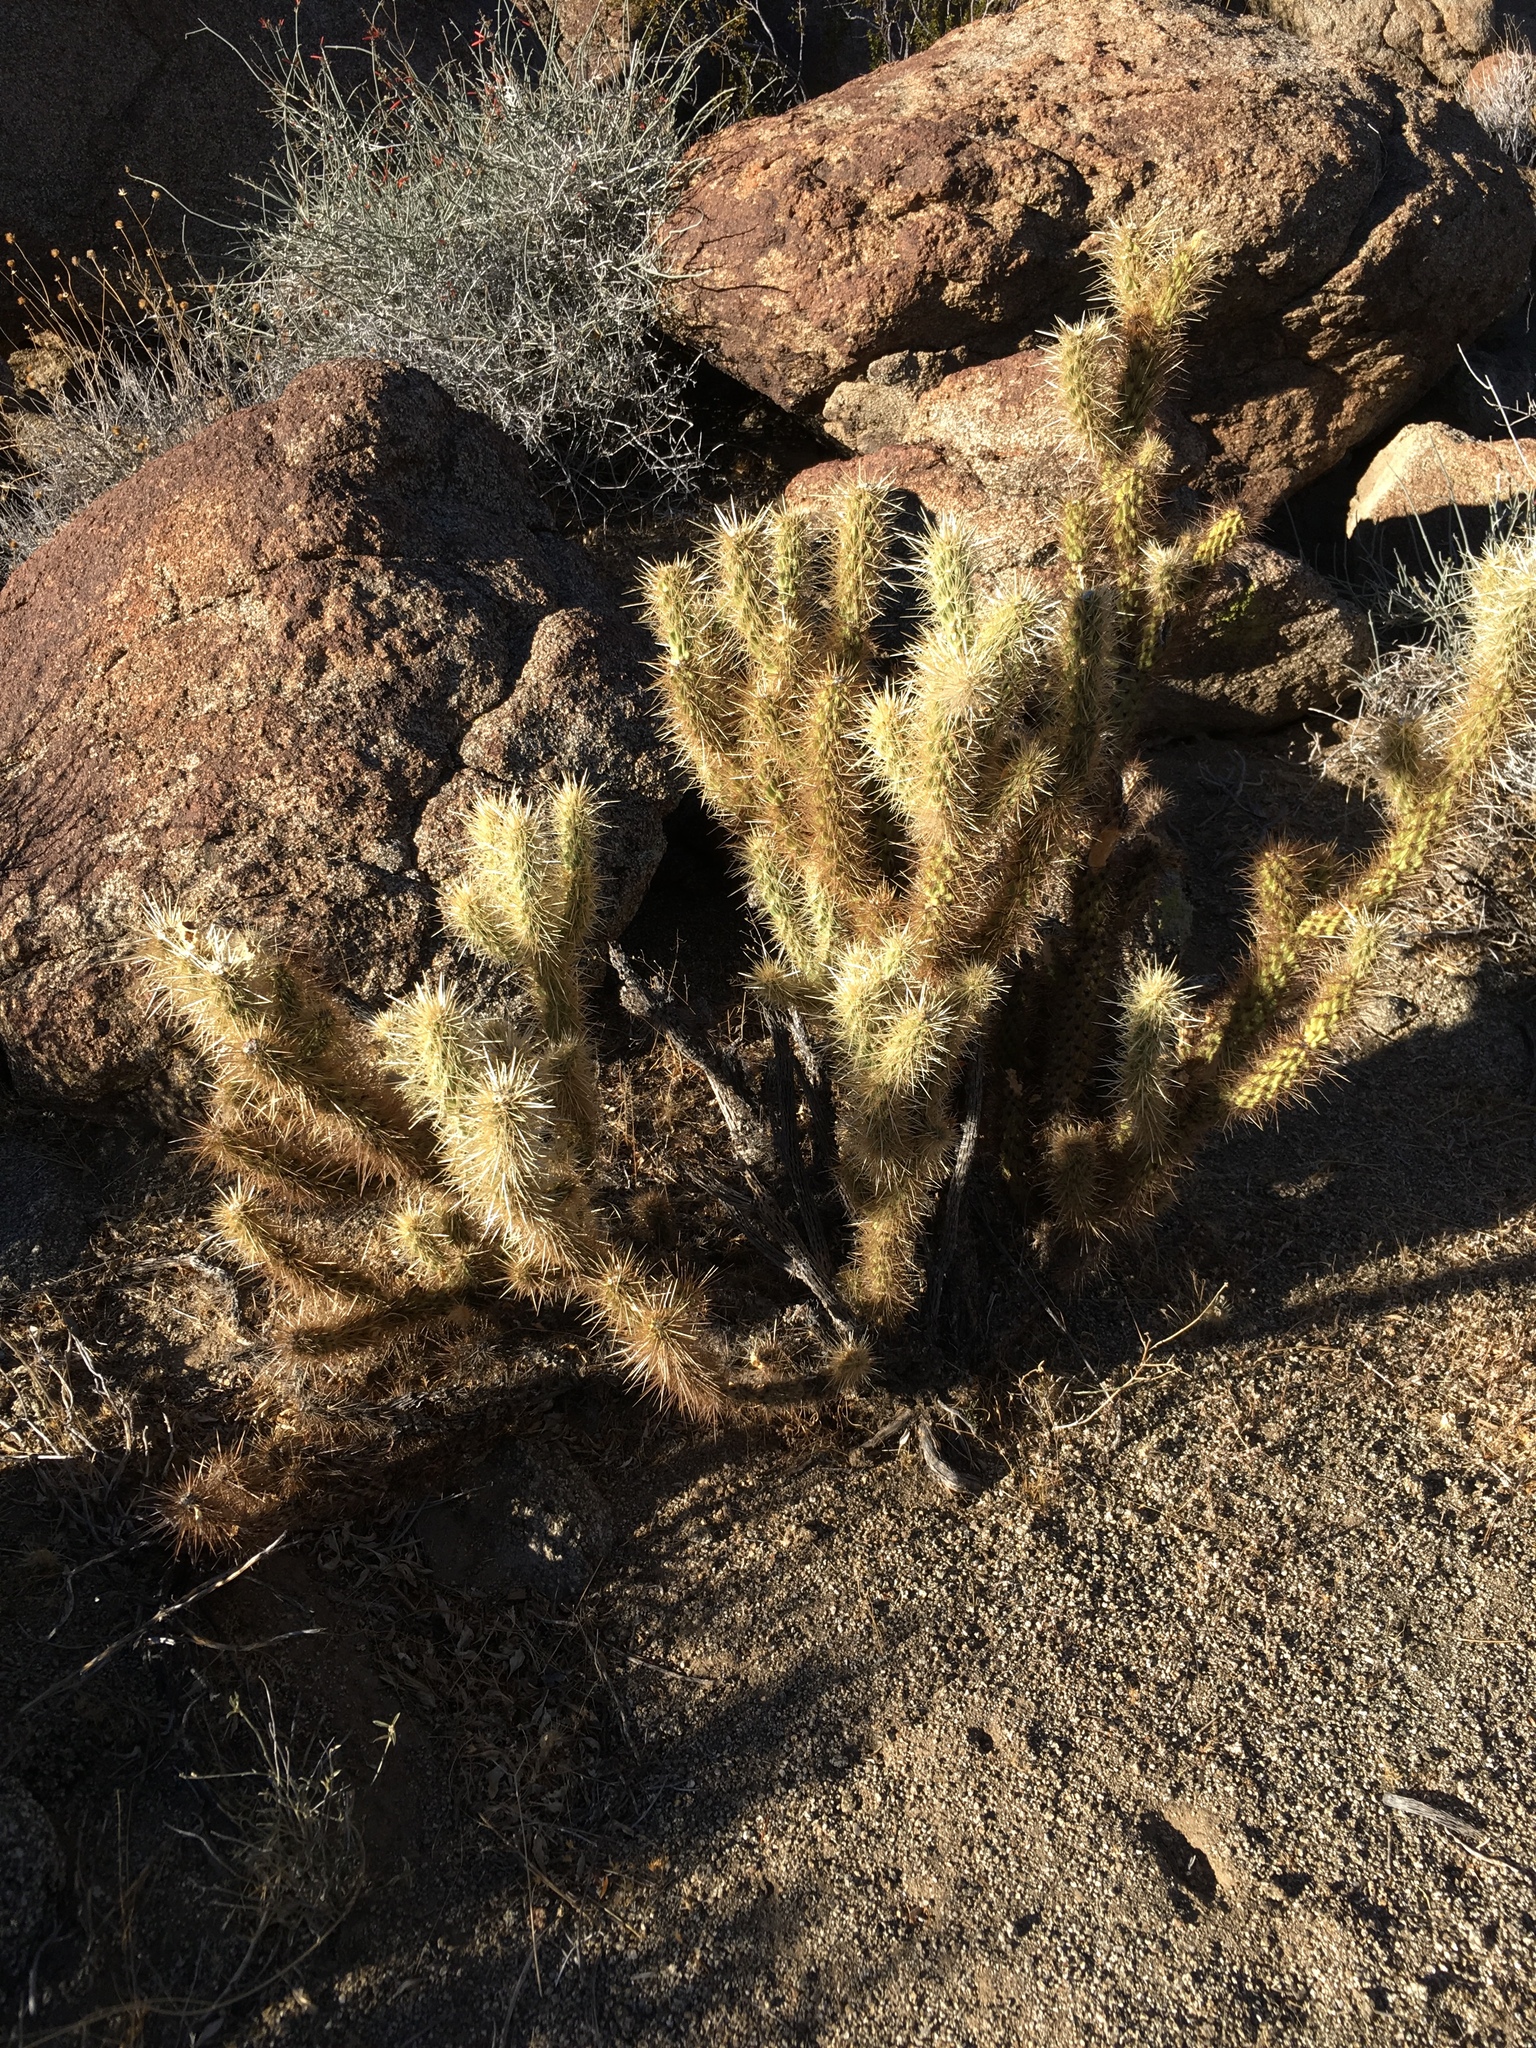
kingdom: Plantae
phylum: Tracheophyta
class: Magnoliopsida
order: Caryophyllales
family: Cactaceae
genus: Cylindropuntia
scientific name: Cylindropuntia ganderi
